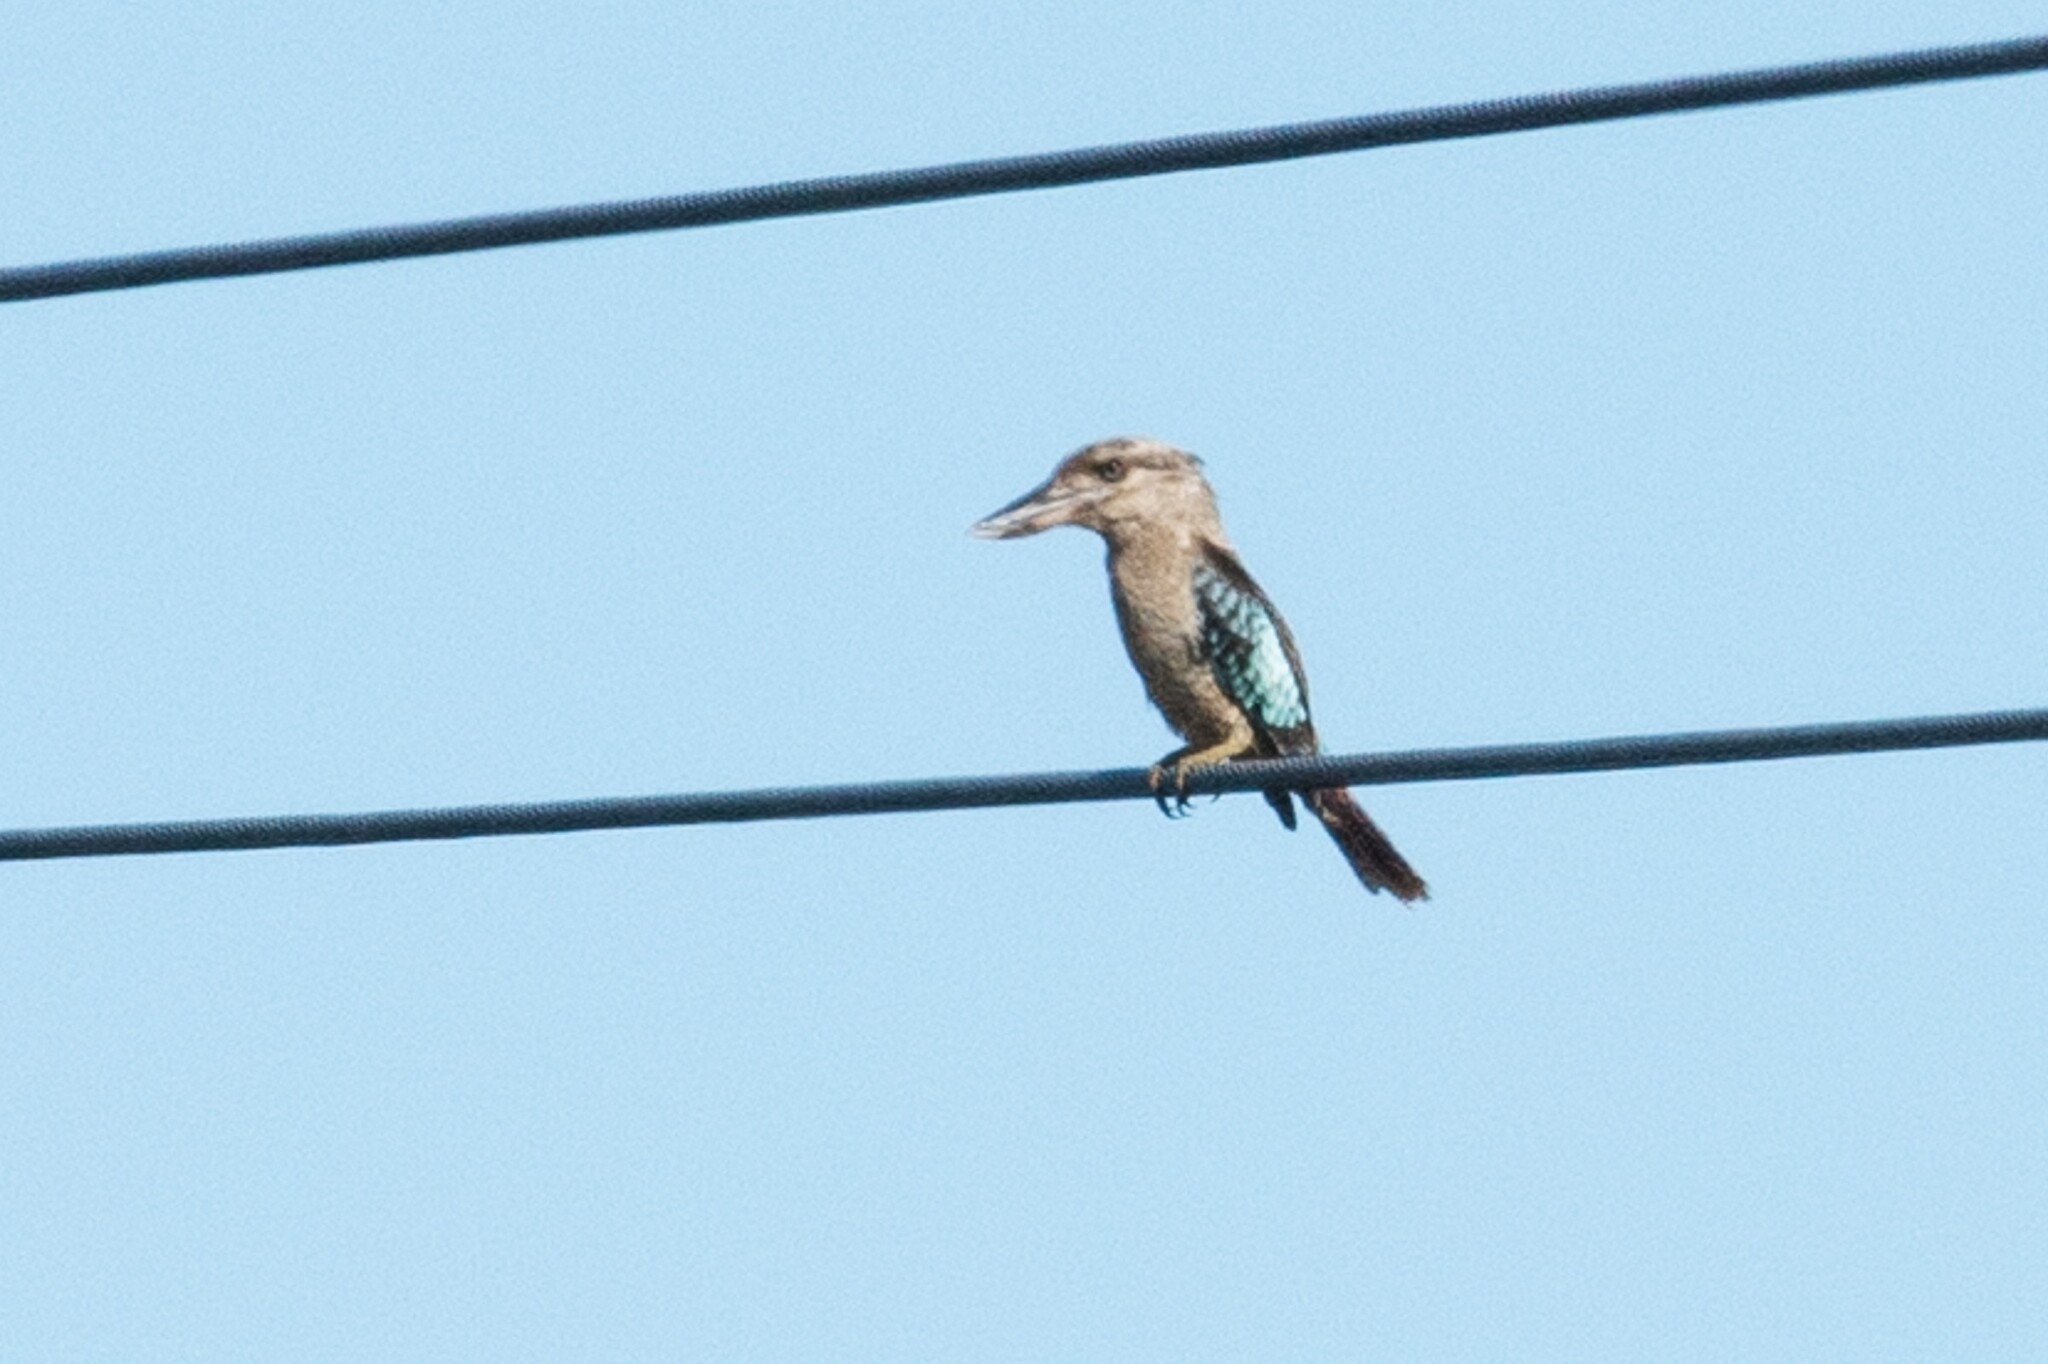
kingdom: Animalia
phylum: Chordata
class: Aves
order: Coraciiformes
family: Alcedinidae
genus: Dacelo
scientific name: Dacelo leachii
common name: Blue-winged kookaburra
